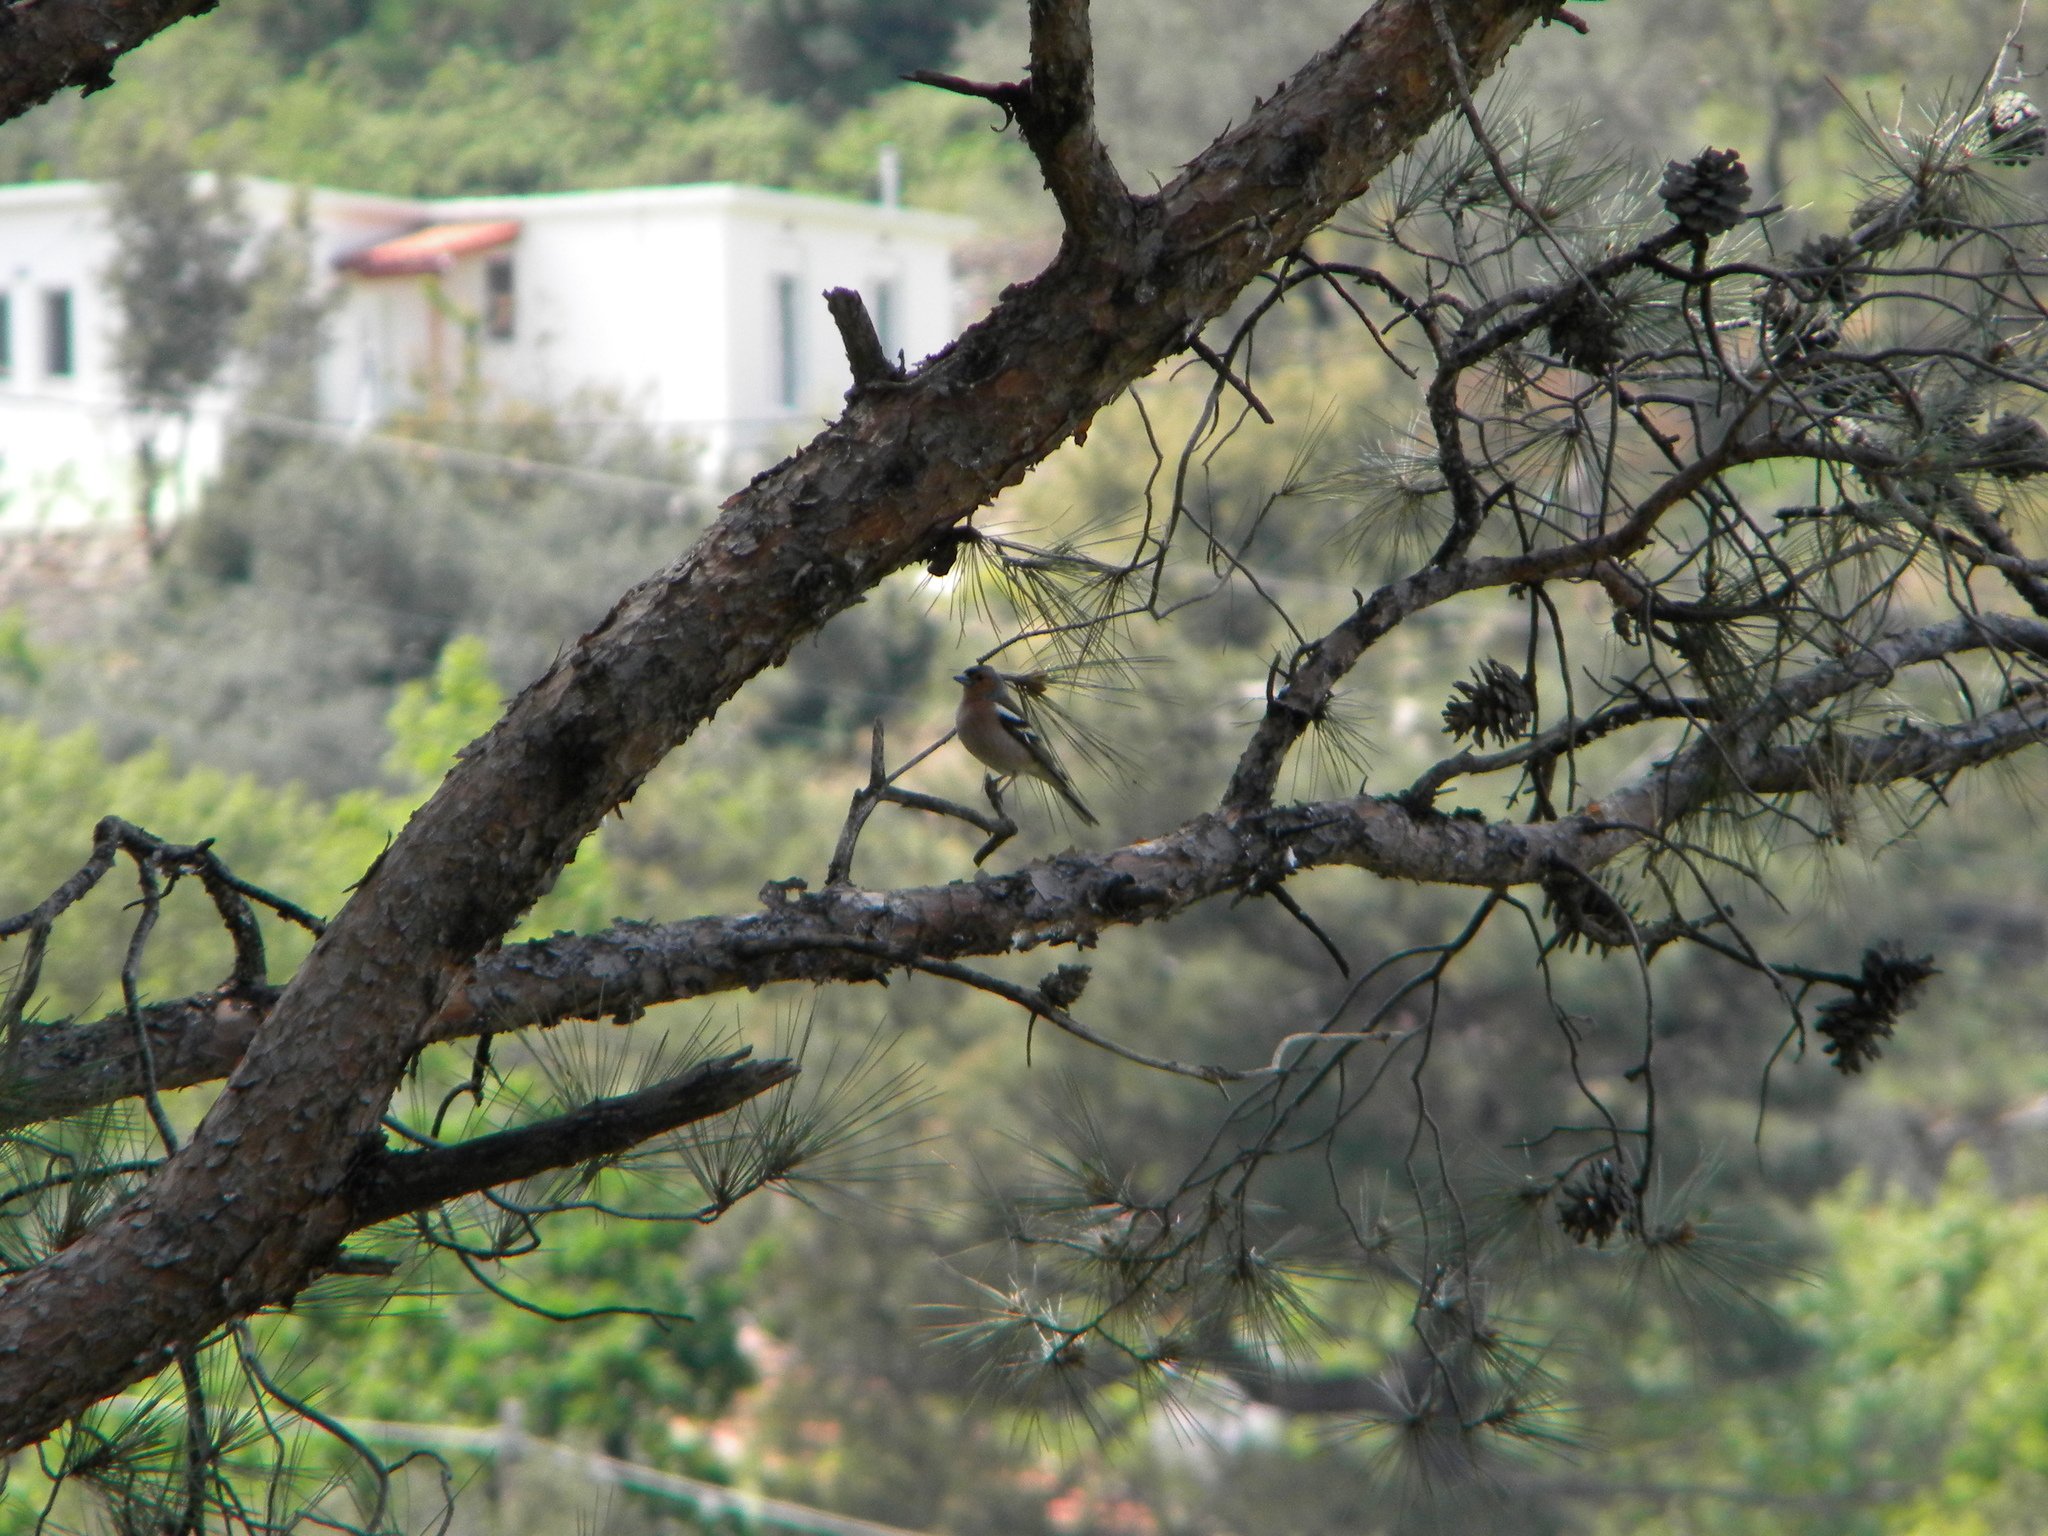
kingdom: Animalia
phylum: Chordata
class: Aves
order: Passeriformes
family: Fringillidae
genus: Fringilla
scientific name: Fringilla coelebs
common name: Common chaffinch
